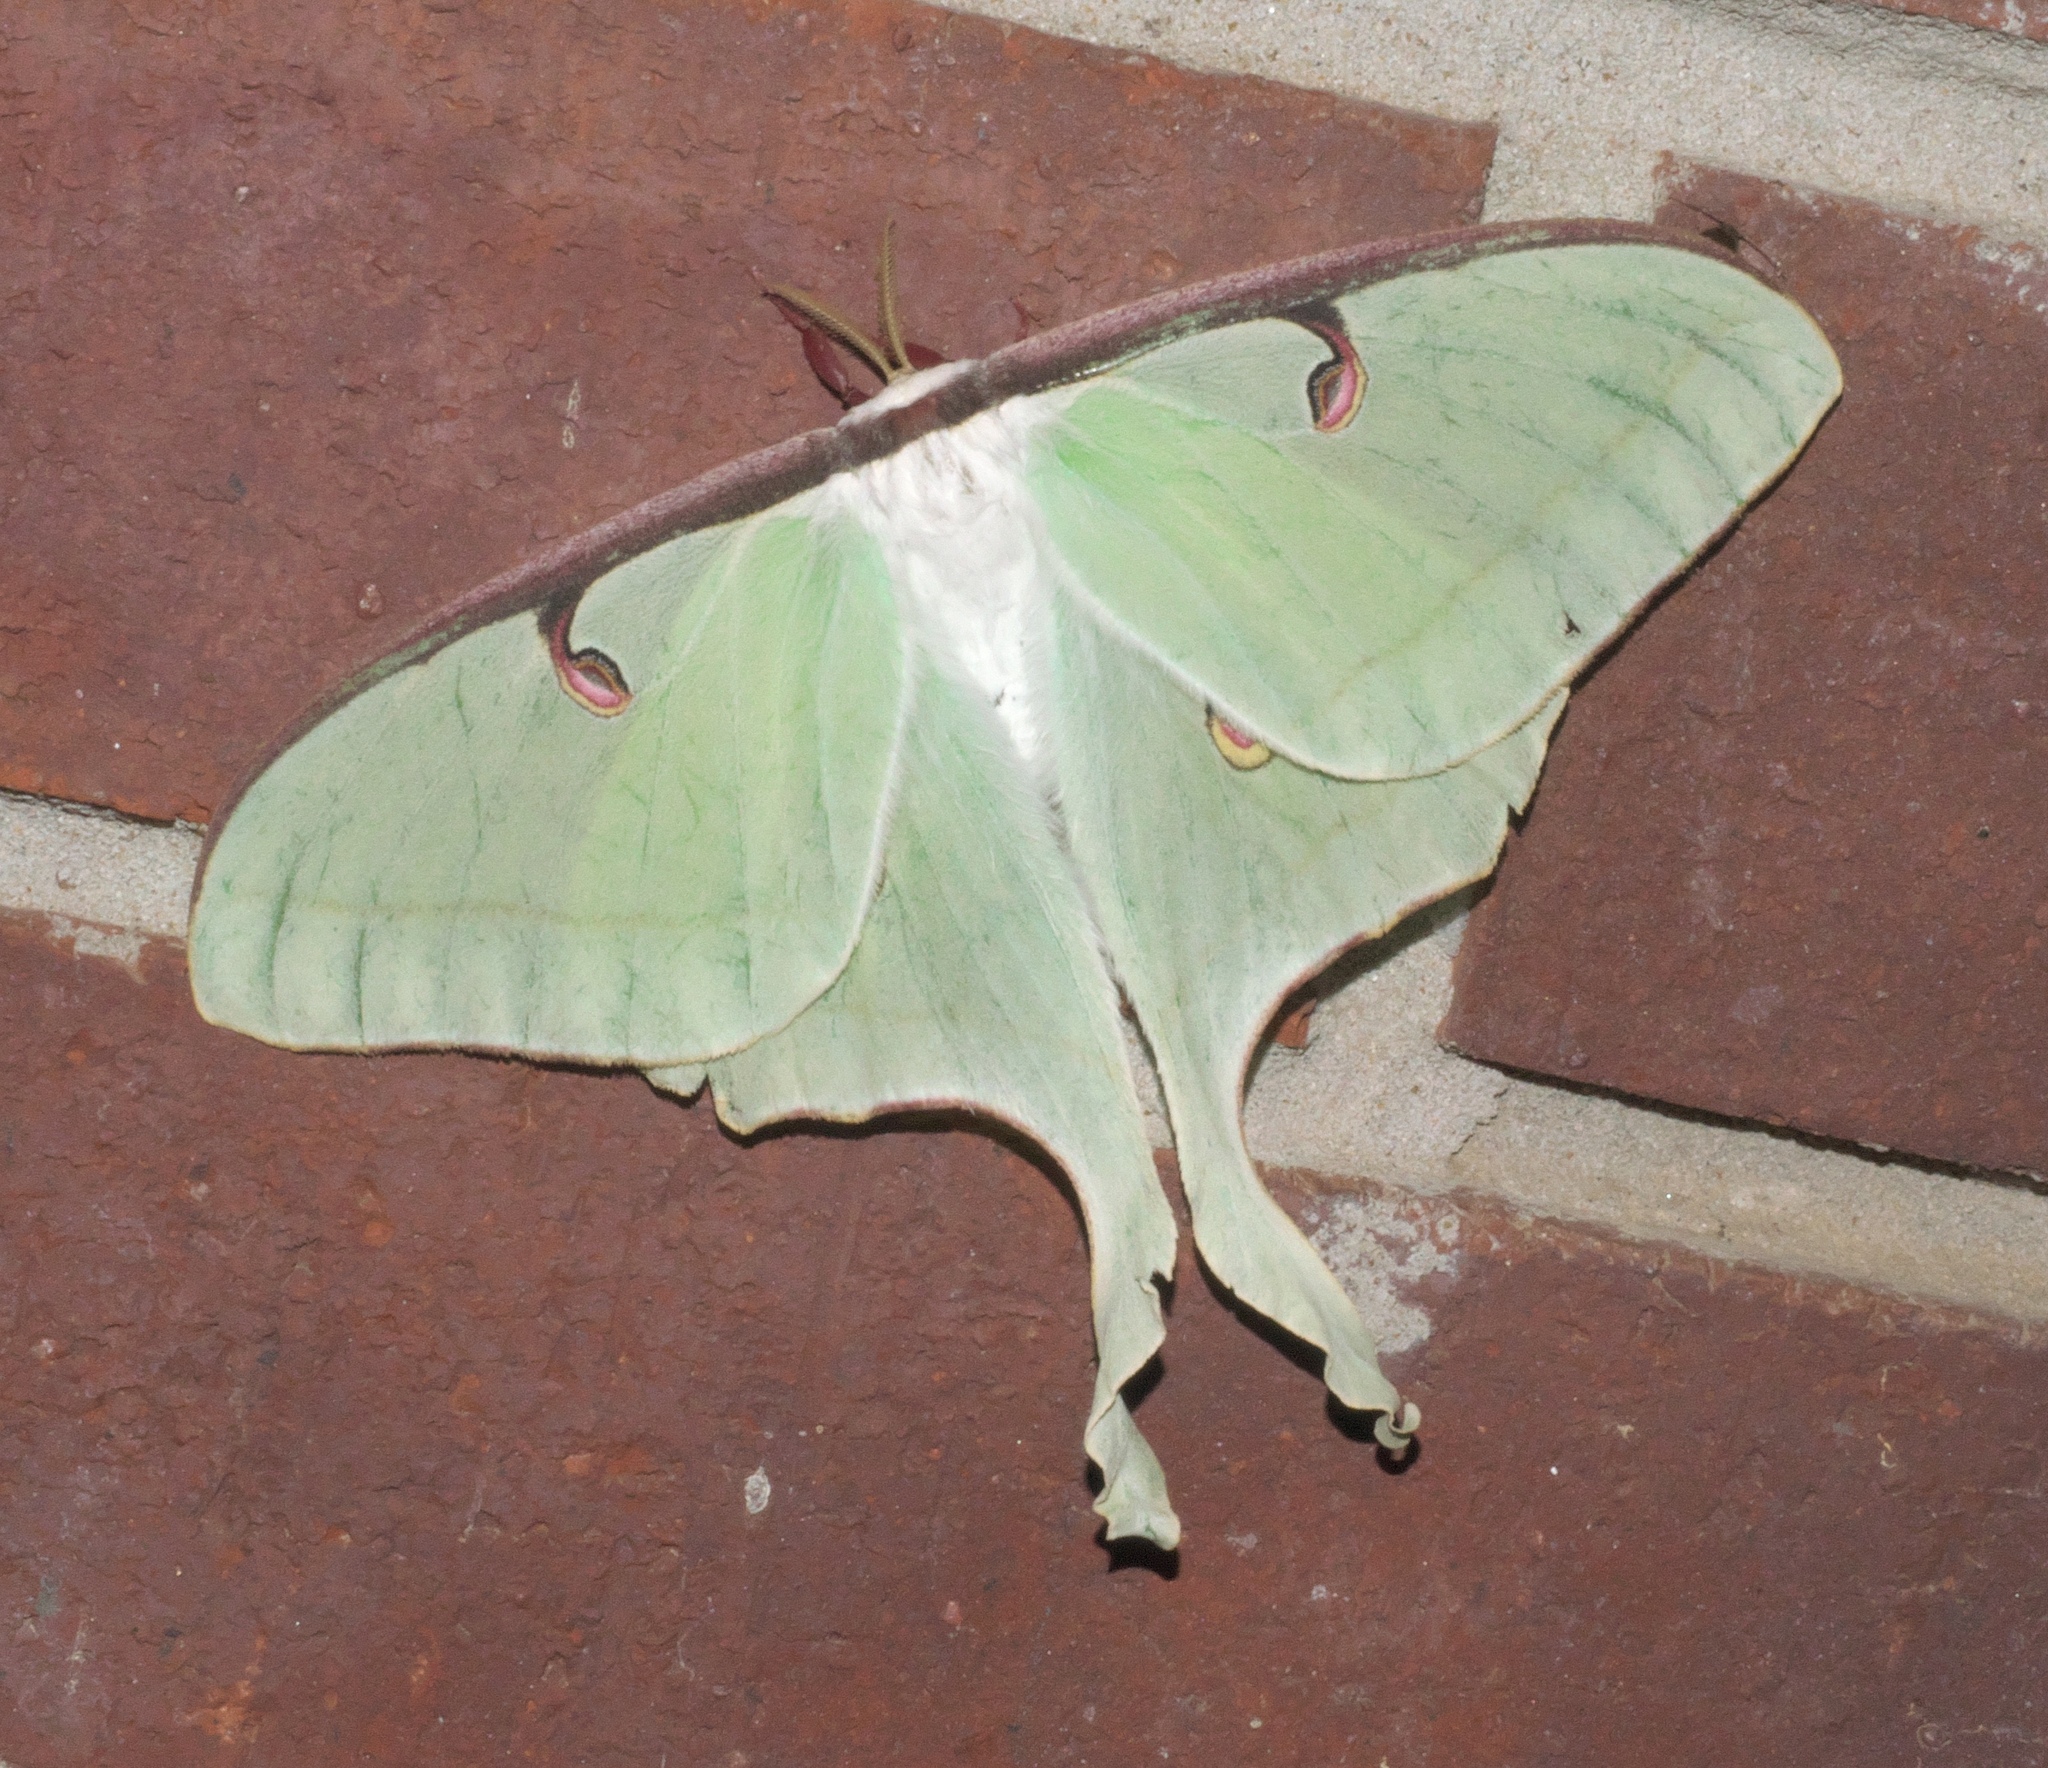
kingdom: Animalia
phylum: Arthropoda
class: Insecta
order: Lepidoptera
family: Saturniidae
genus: Actias
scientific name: Actias luna
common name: Luna moth
